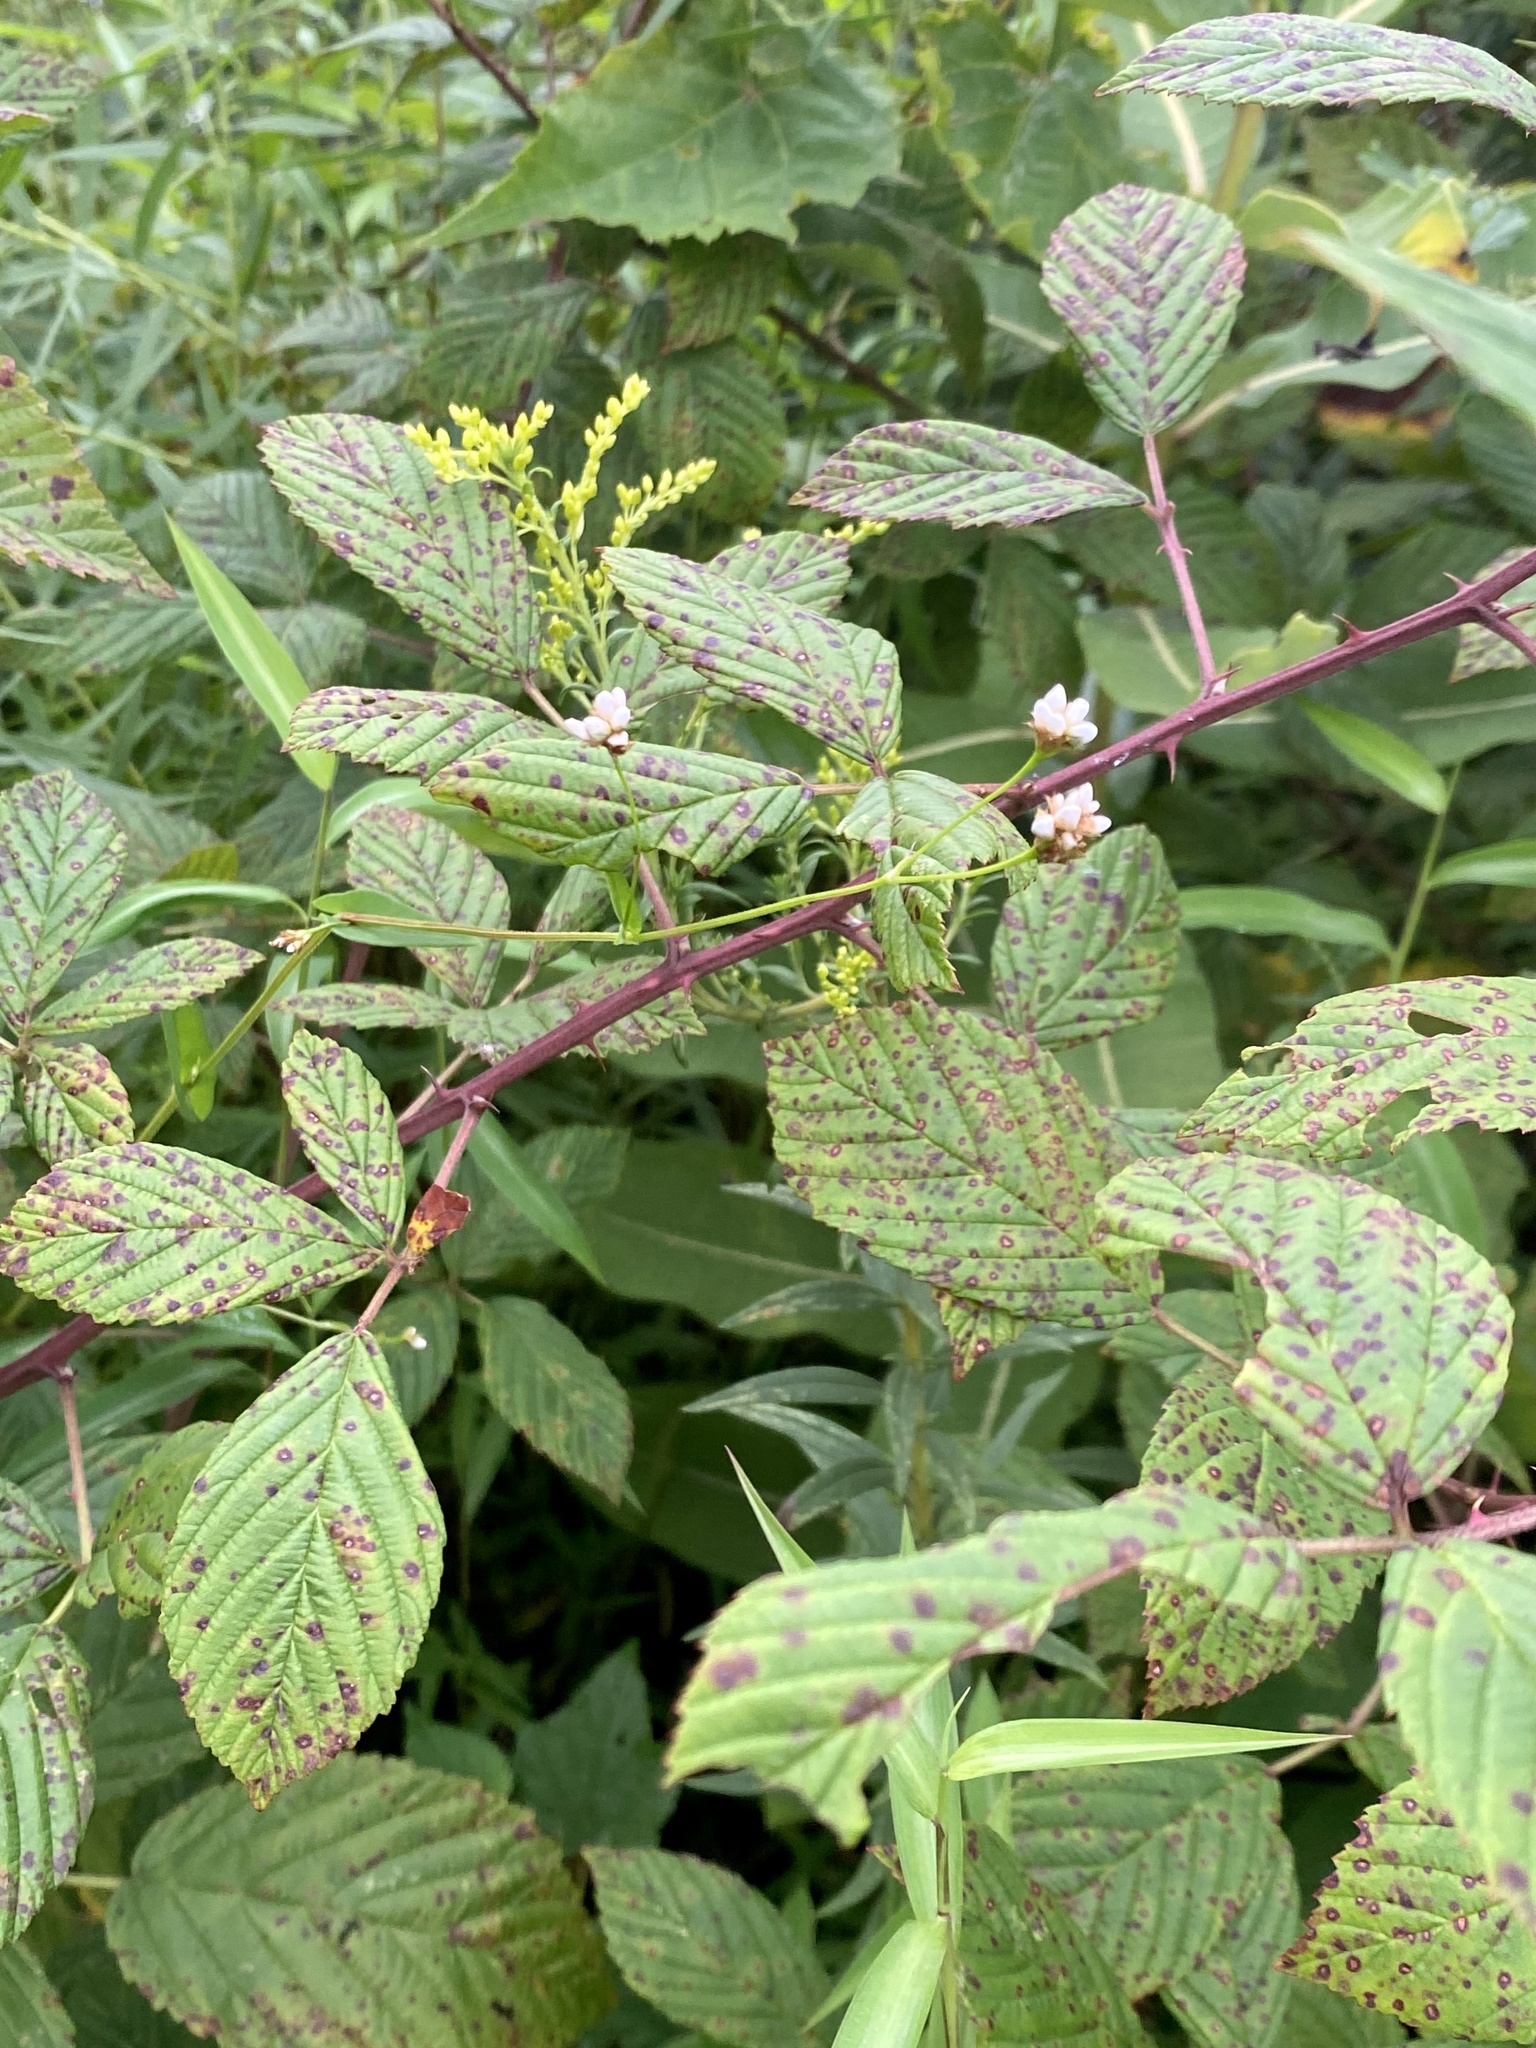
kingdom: Plantae
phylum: Tracheophyta
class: Magnoliopsida
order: Caryophyllales
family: Polygonaceae
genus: Persicaria
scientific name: Persicaria sagittata
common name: American tearthumb
